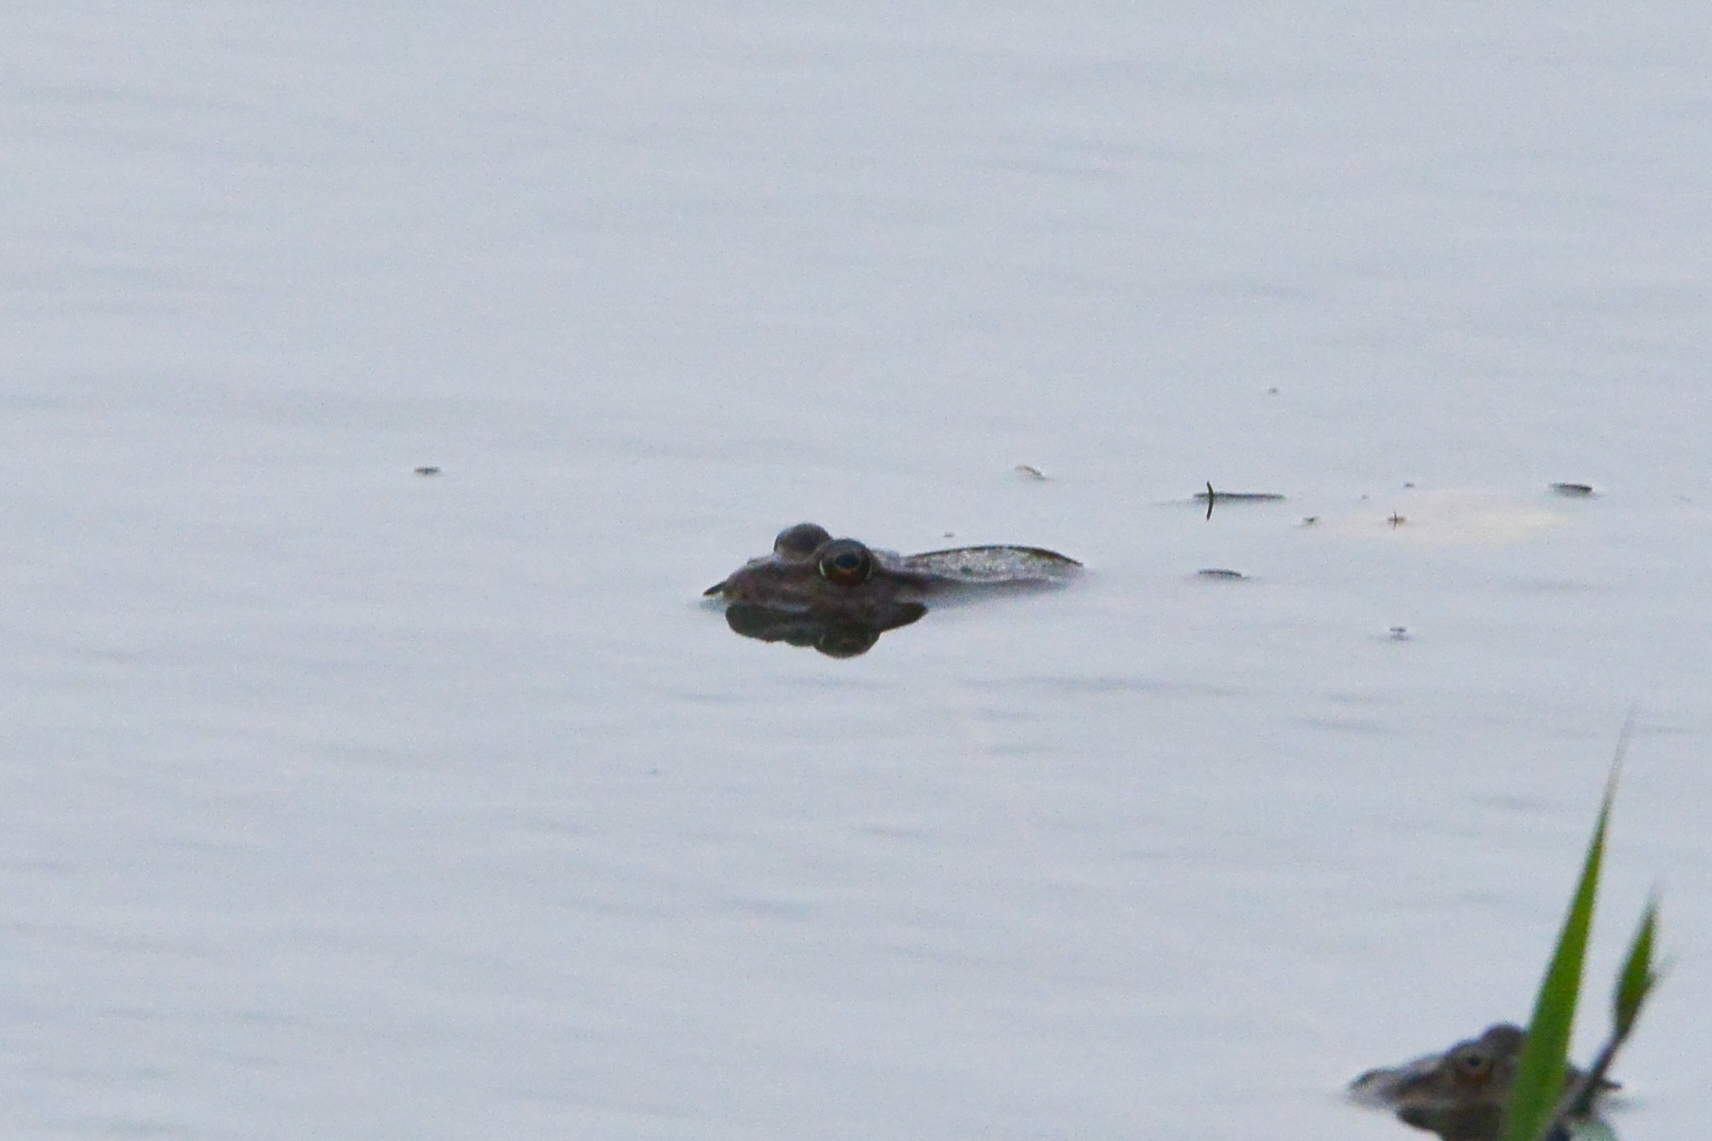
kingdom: Animalia
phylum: Chordata
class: Amphibia
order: Anura
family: Ranidae
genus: Pelophylax
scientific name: Pelophylax ridibundus
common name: Marsh frog
